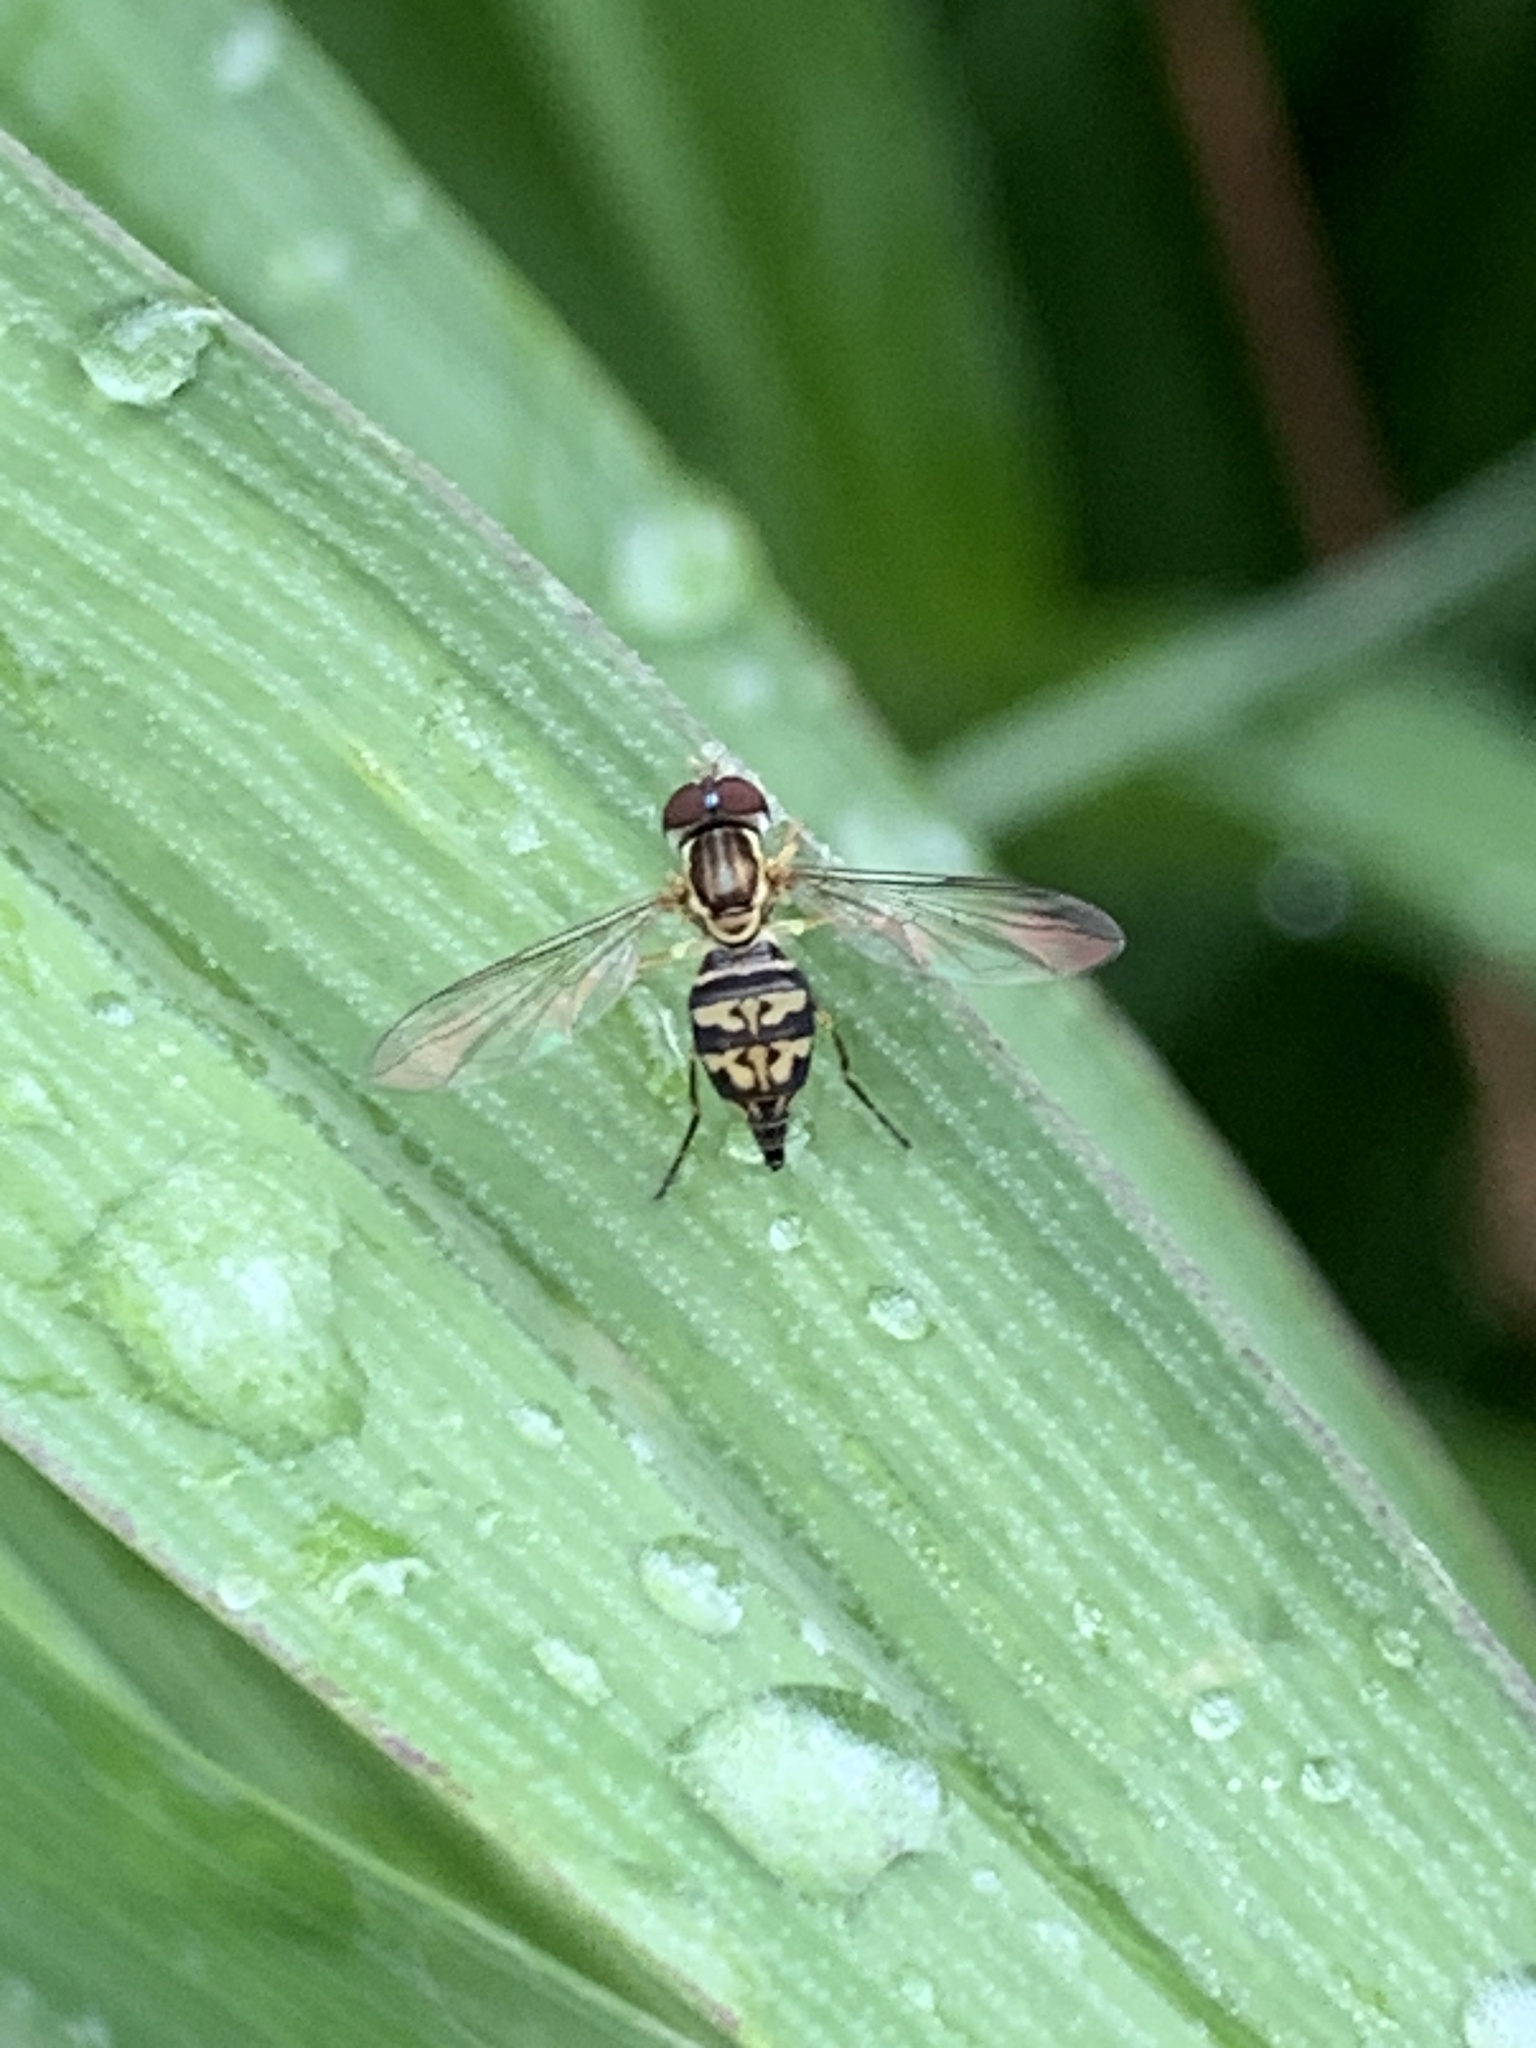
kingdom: Animalia
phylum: Arthropoda
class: Insecta
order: Diptera
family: Syrphidae
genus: Toxomerus
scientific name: Toxomerus geminatus
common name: Eastern calligrapher
